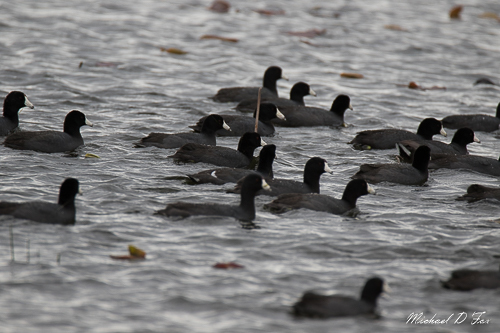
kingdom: Animalia
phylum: Chordata
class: Aves
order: Gruiformes
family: Rallidae
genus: Fulica
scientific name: Fulica americana
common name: American coot
